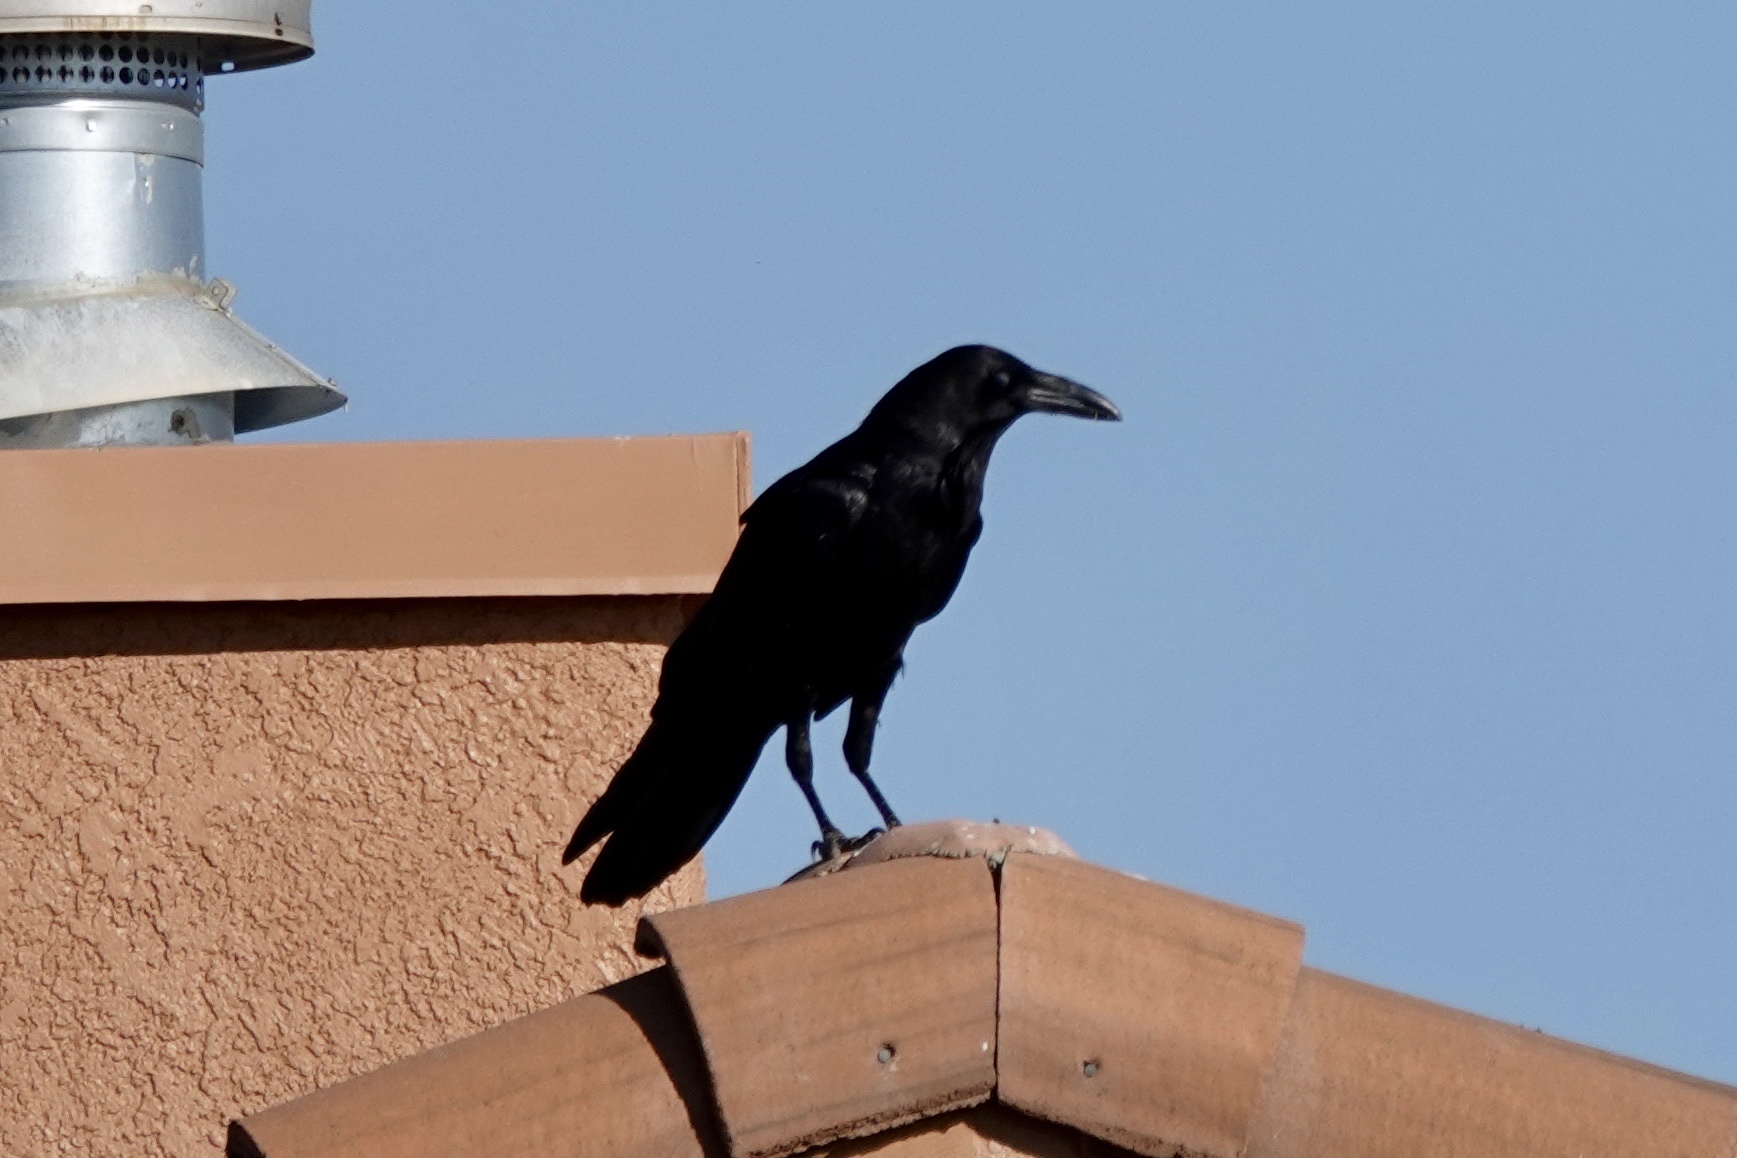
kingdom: Animalia
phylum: Chordata
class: Aves
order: Passeriformes
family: Corvidae
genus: Corvus
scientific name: Corvus cryptoleucus
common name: Chihuahuan raven
